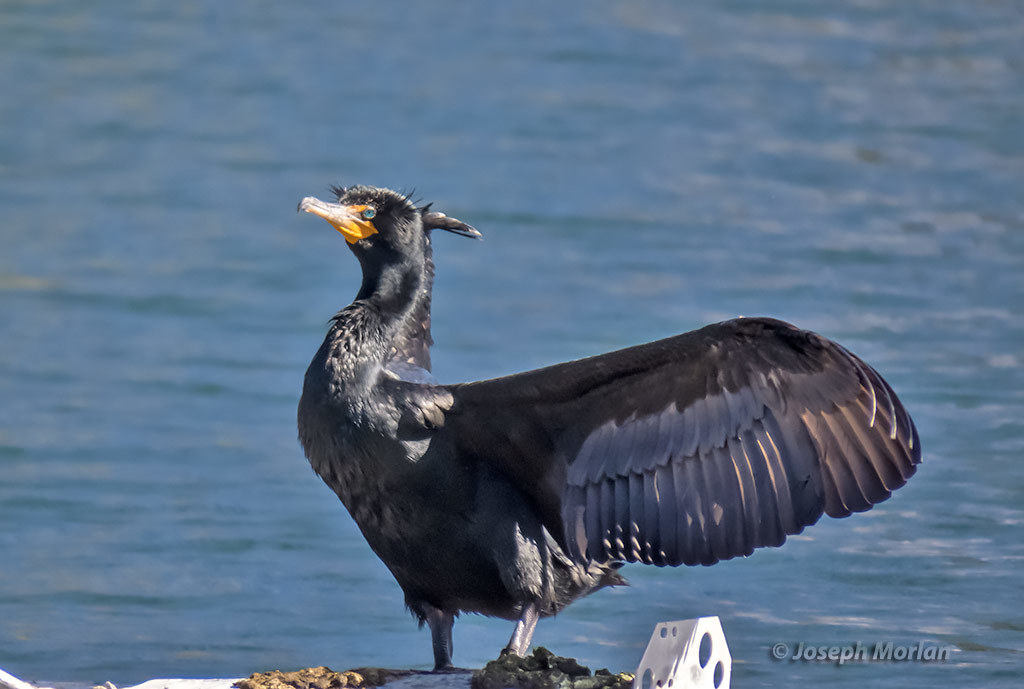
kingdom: Animalia
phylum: Chordata
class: Aves
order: Suliformes
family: Phalacrocoracidae
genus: Phalacrocorax
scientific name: Phalacrocorax auritus
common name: Double-crested cormorant
